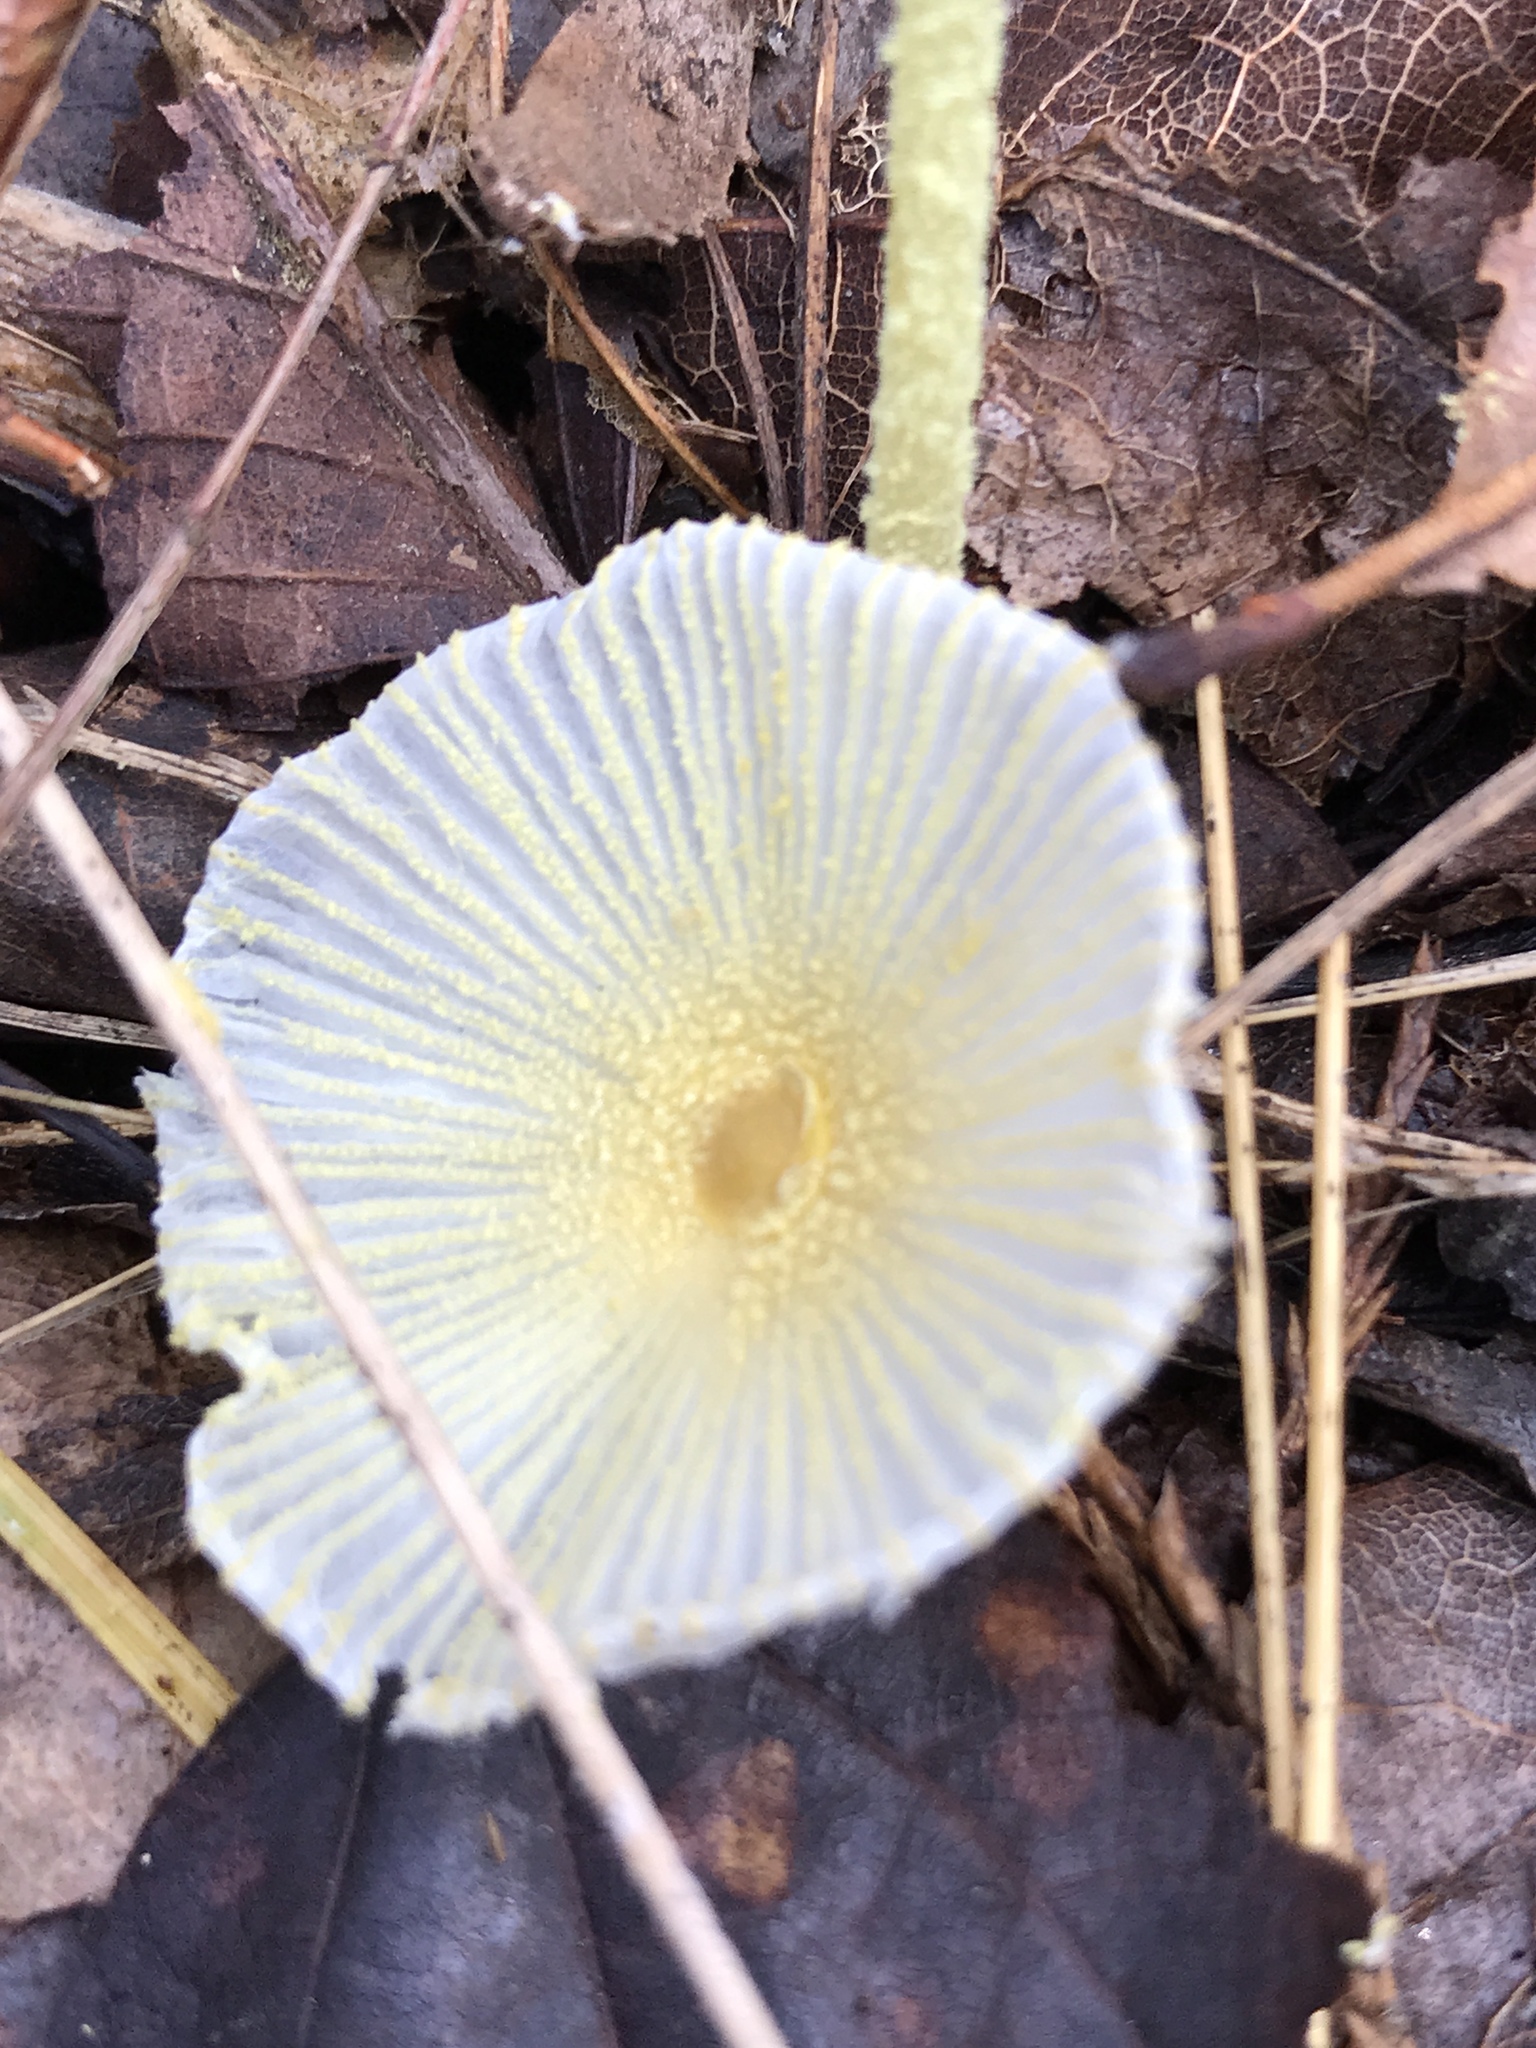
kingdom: Fungi
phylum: Basidiomycota
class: Agaricomycetes
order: Agaricales
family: Agaricaceae
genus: Leucocoprinus
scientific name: Leucocoprinus fragilissimus
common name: Fragile dapperling
